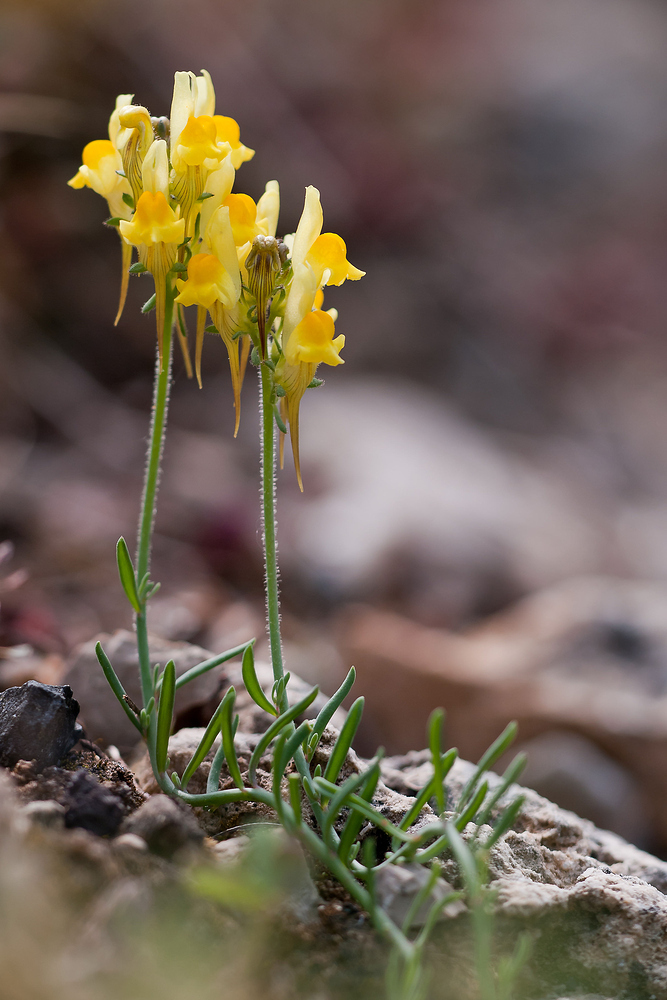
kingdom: Plantae
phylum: Tracheophyta
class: Magnoliopsida
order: Lamiales
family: Plantaginaceae
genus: Linaria
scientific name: Linaria supina
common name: Prostrate toadflax
